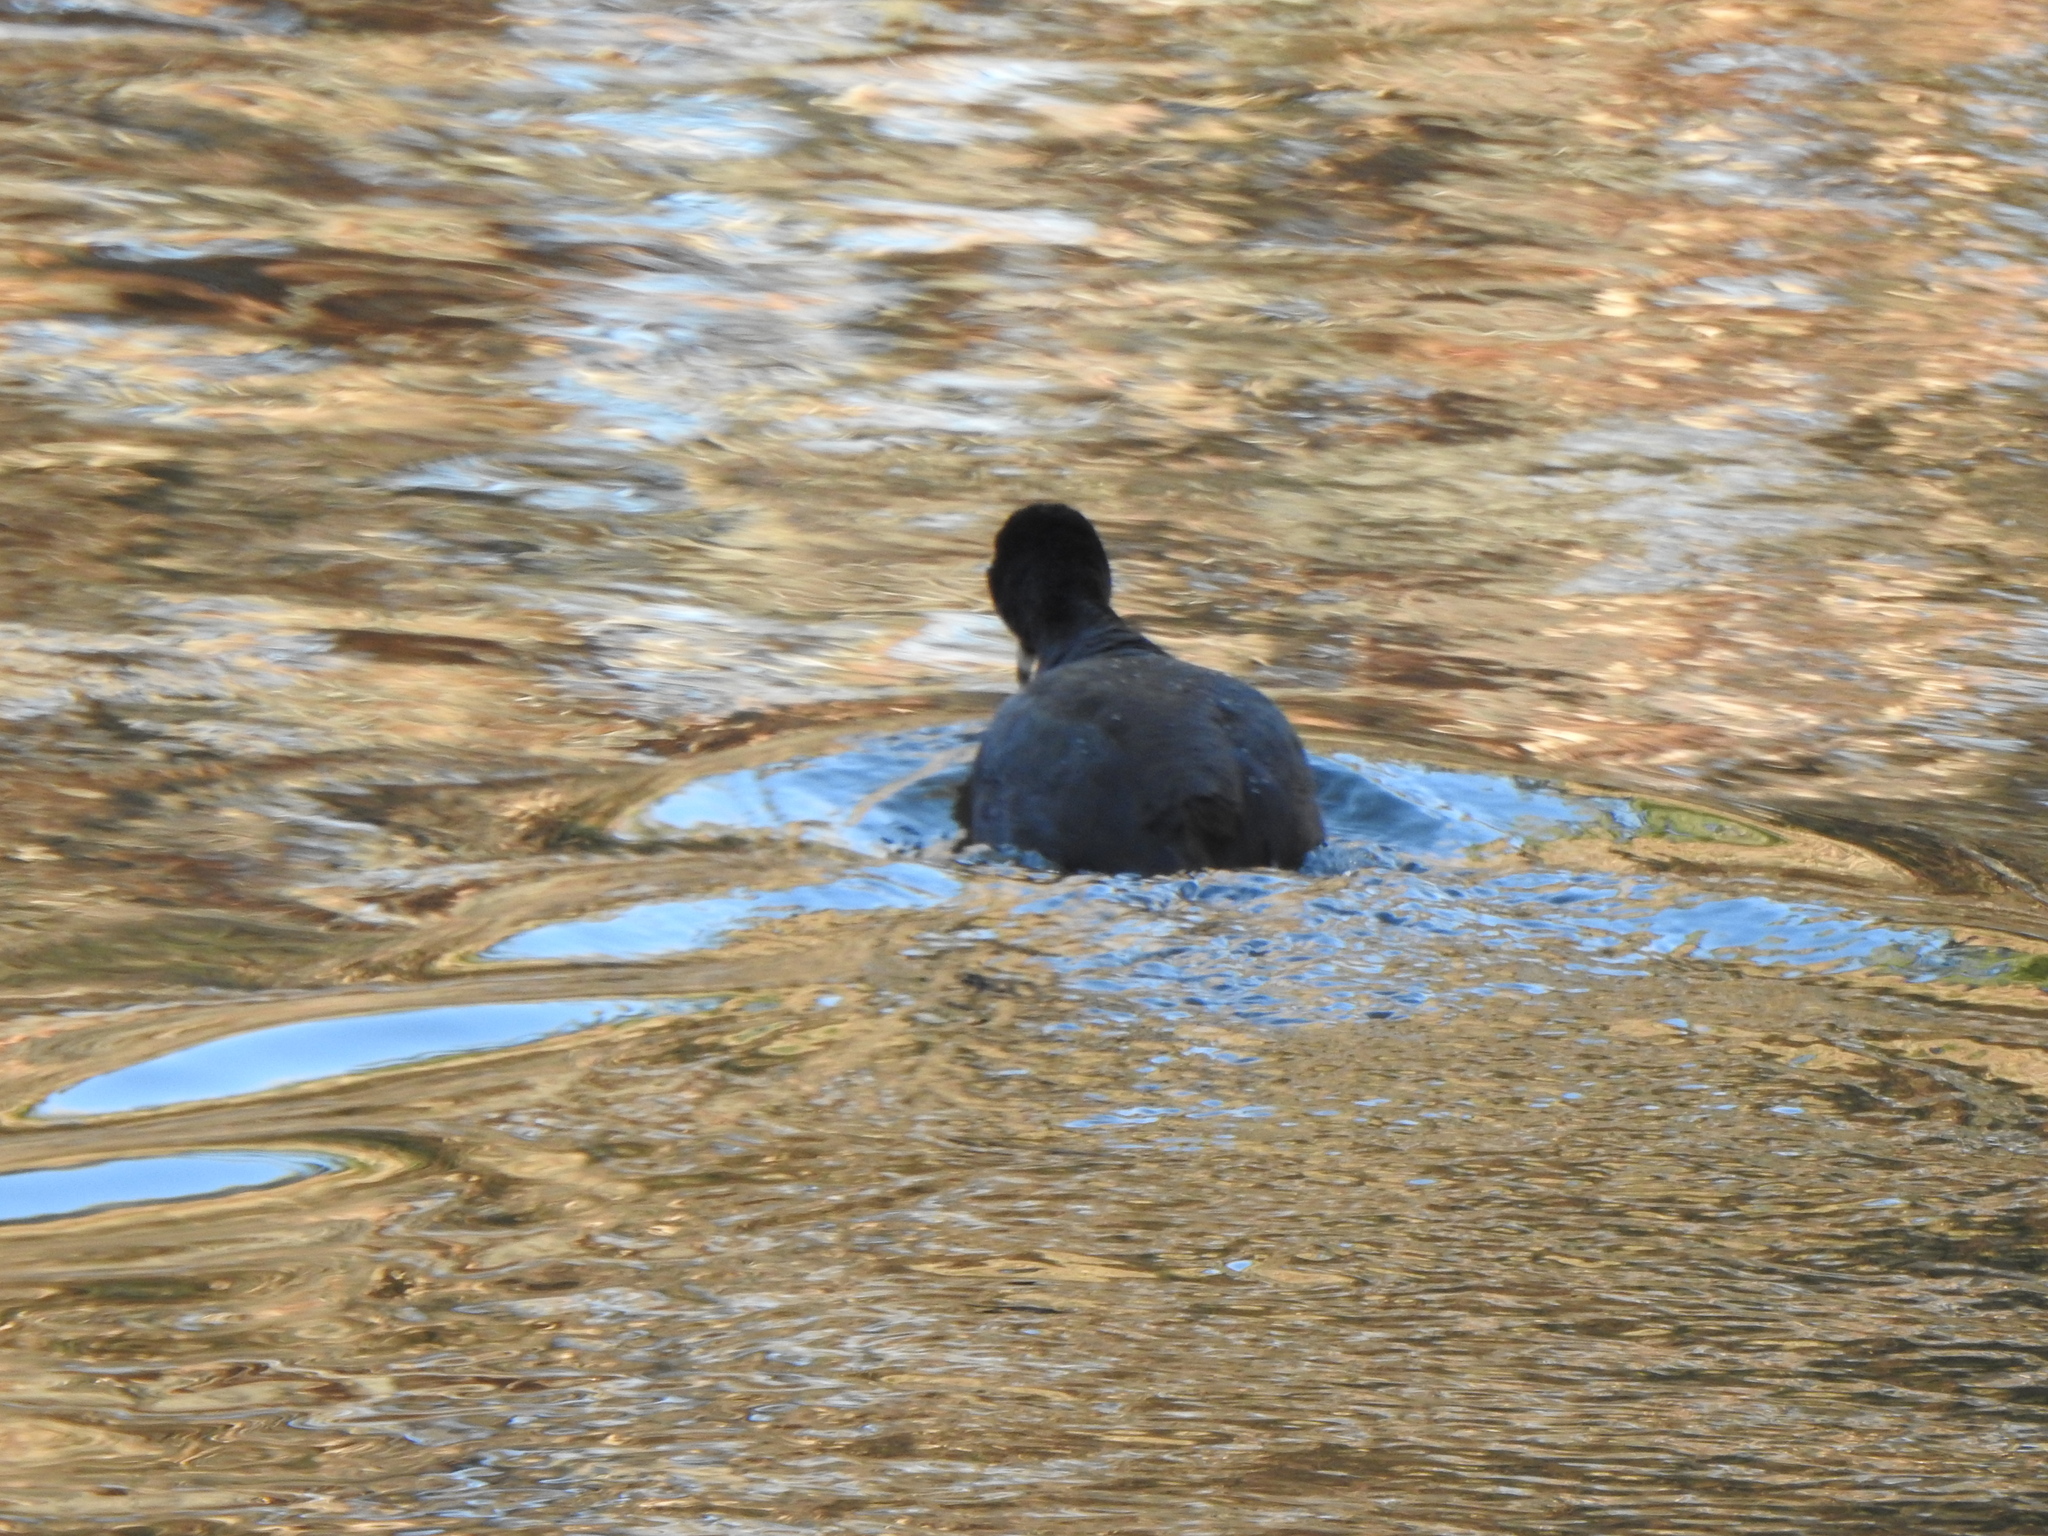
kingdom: Animalia
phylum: Chordata
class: Aves
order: Gruiformes
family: Rallidae
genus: Fulica
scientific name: Fulica americana
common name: American coot
